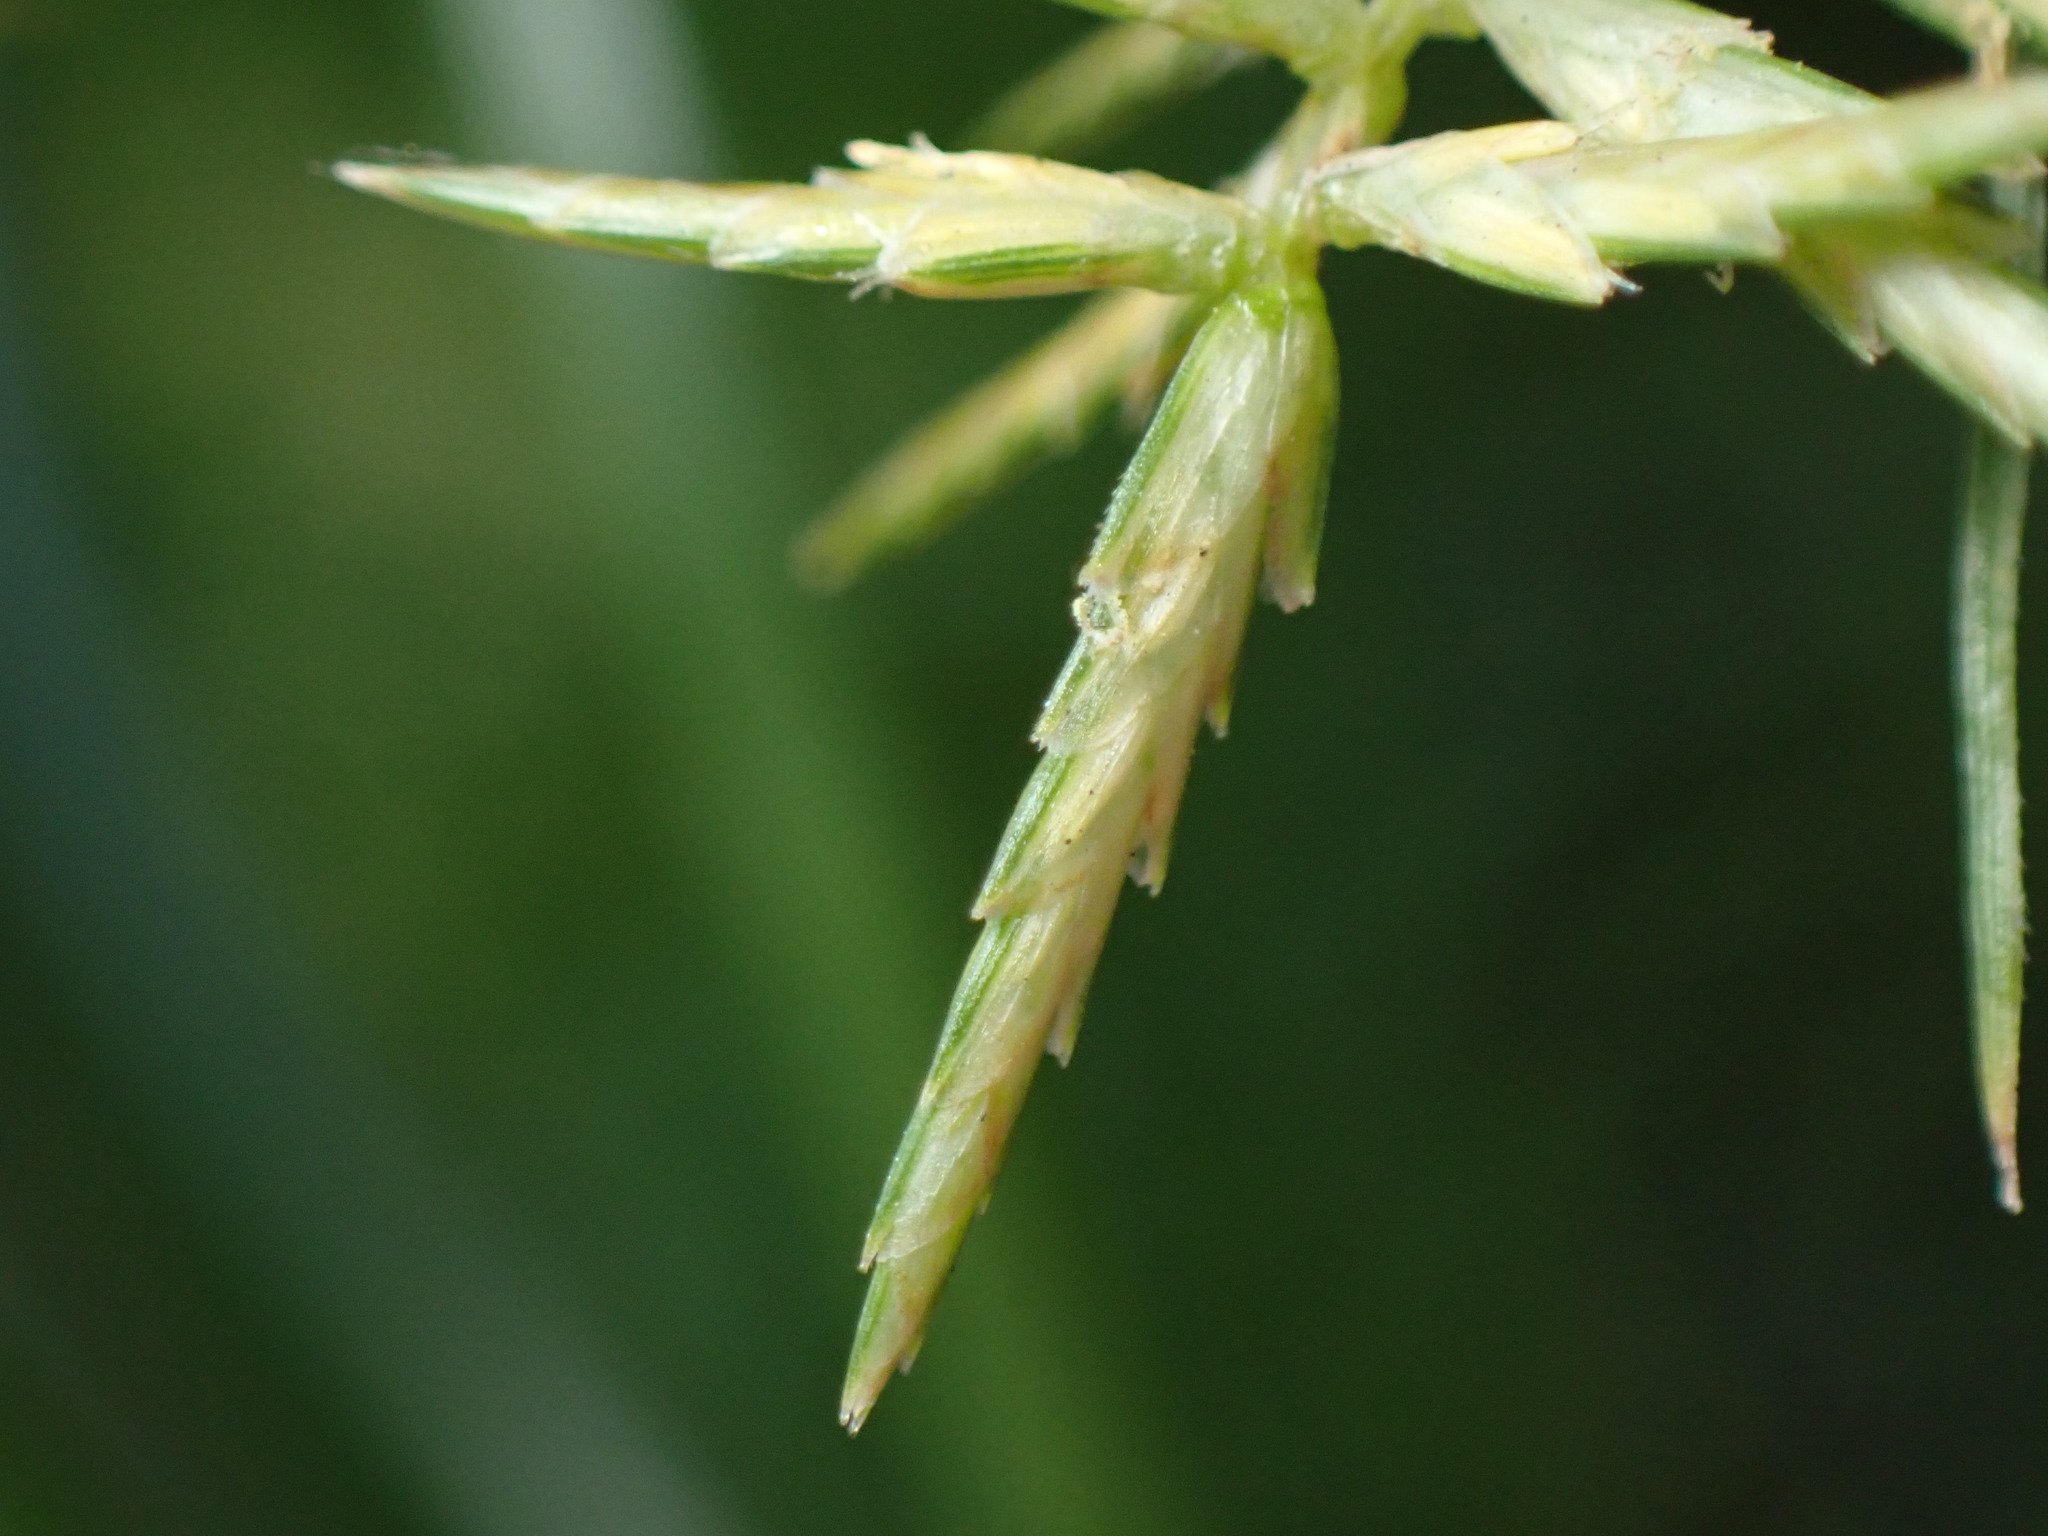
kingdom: Plantae
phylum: Tracheophyta
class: Liliopsida
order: Poales
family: Cyperaceae
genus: Cyperus
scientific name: Cyperus esculentus
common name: Yellow nutsedge
